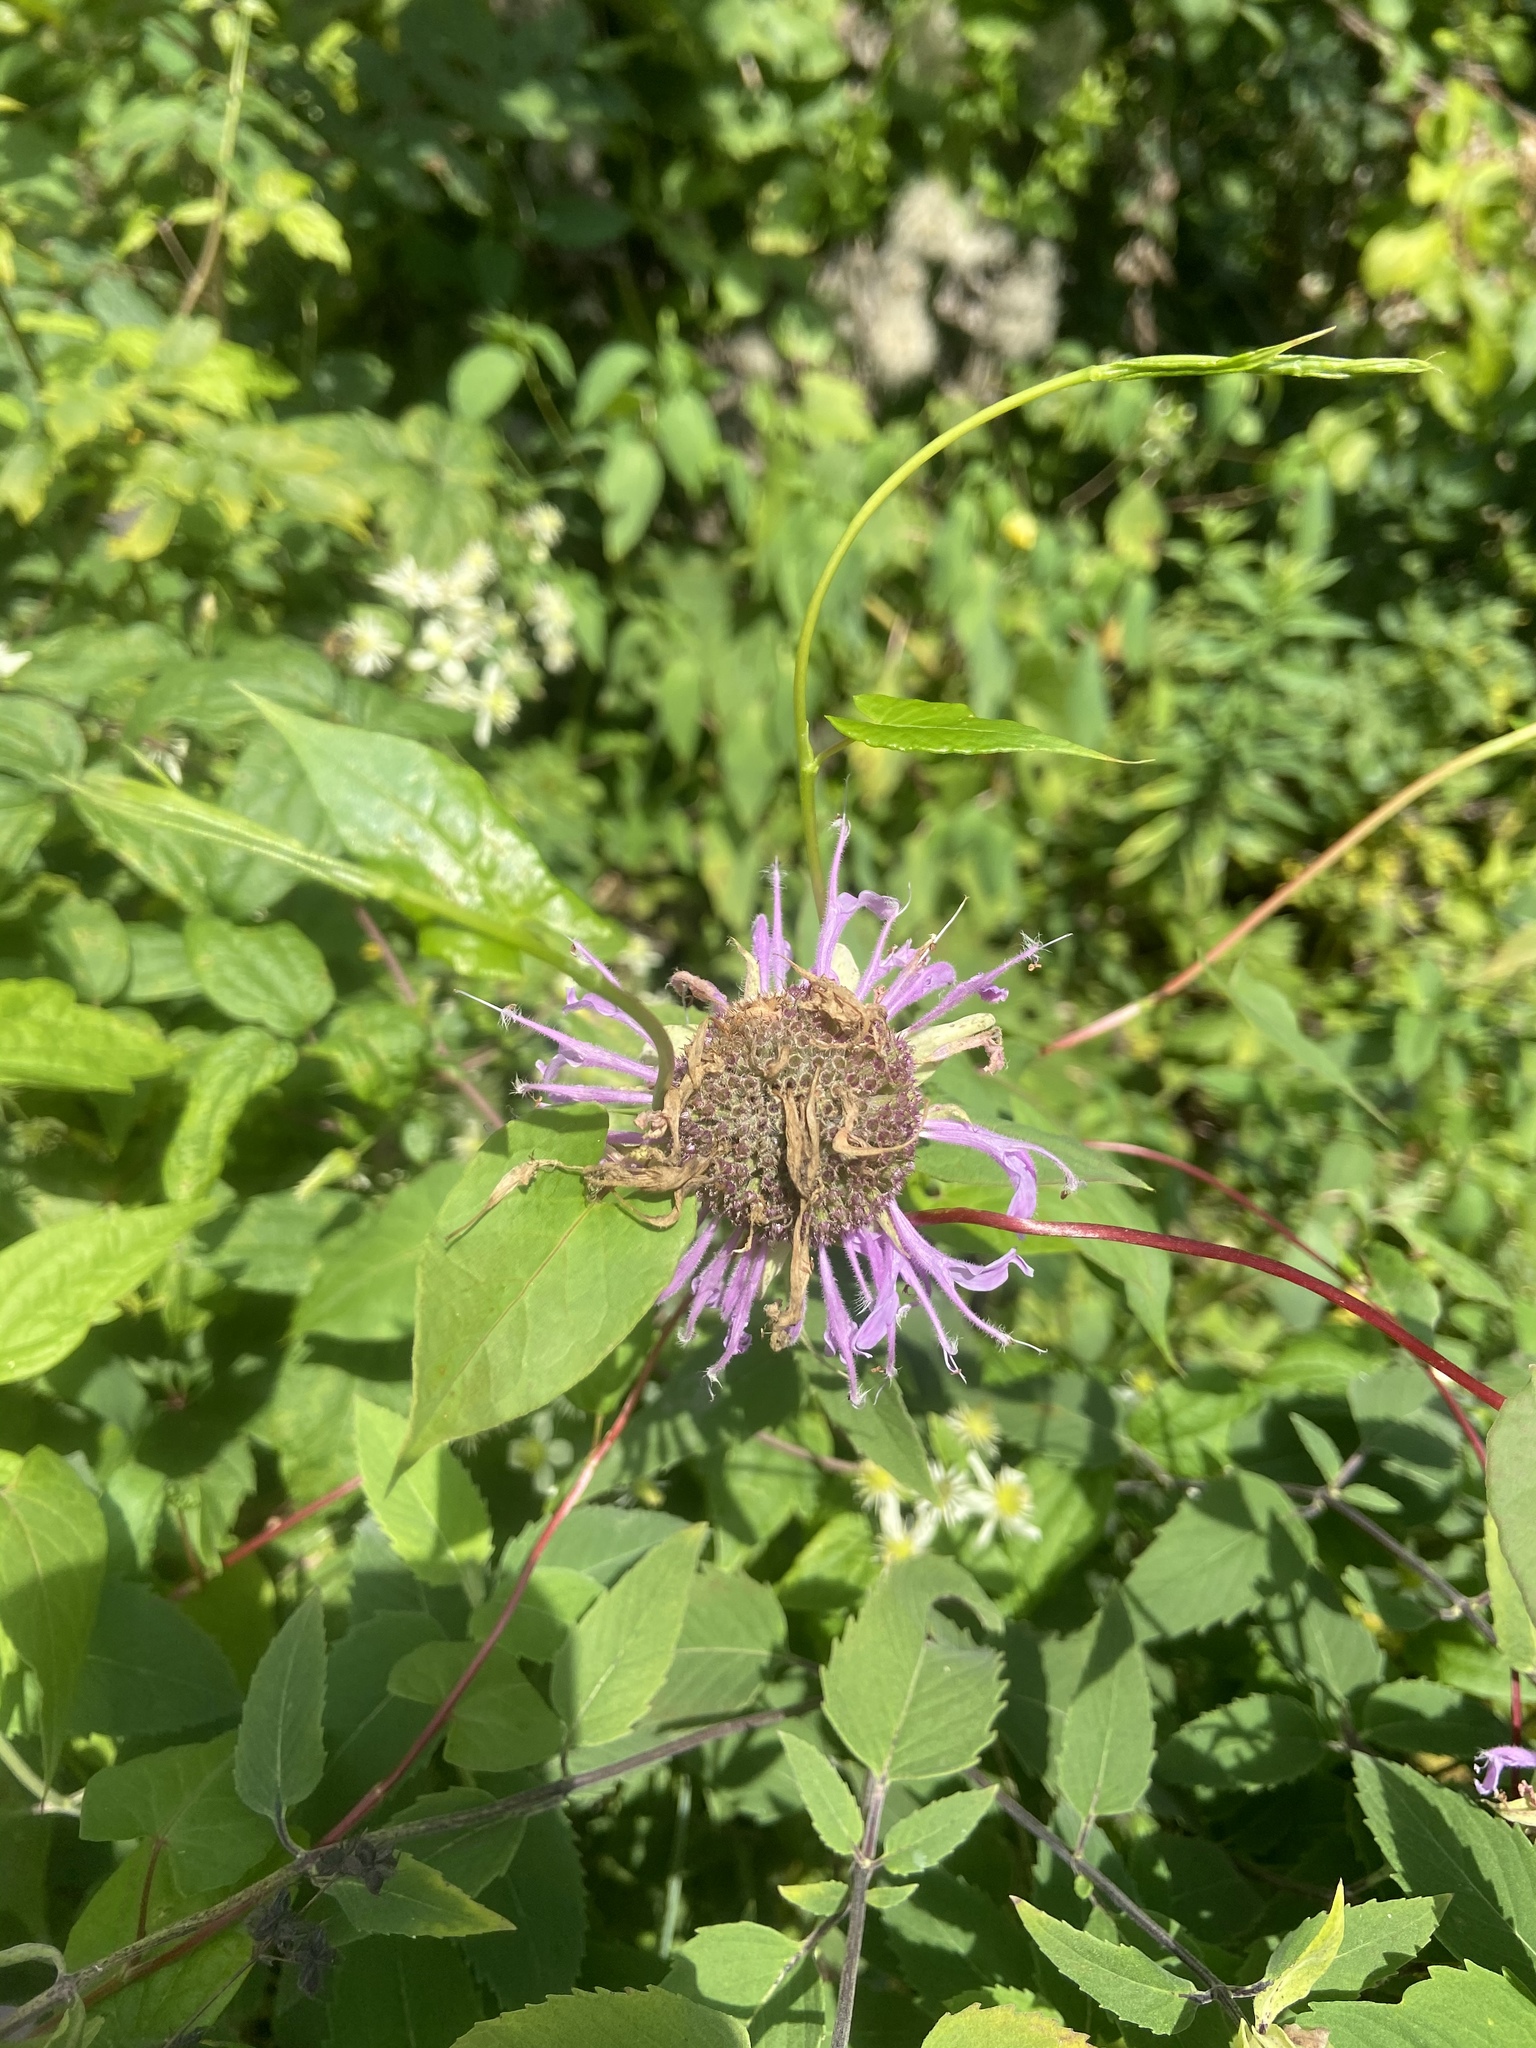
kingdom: Plantae
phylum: Tracheophyta
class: Magnoliopsida
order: Lamiales
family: Lamiaceae
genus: Monarda
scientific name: Monarda fistulosa
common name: Purple beebalm
